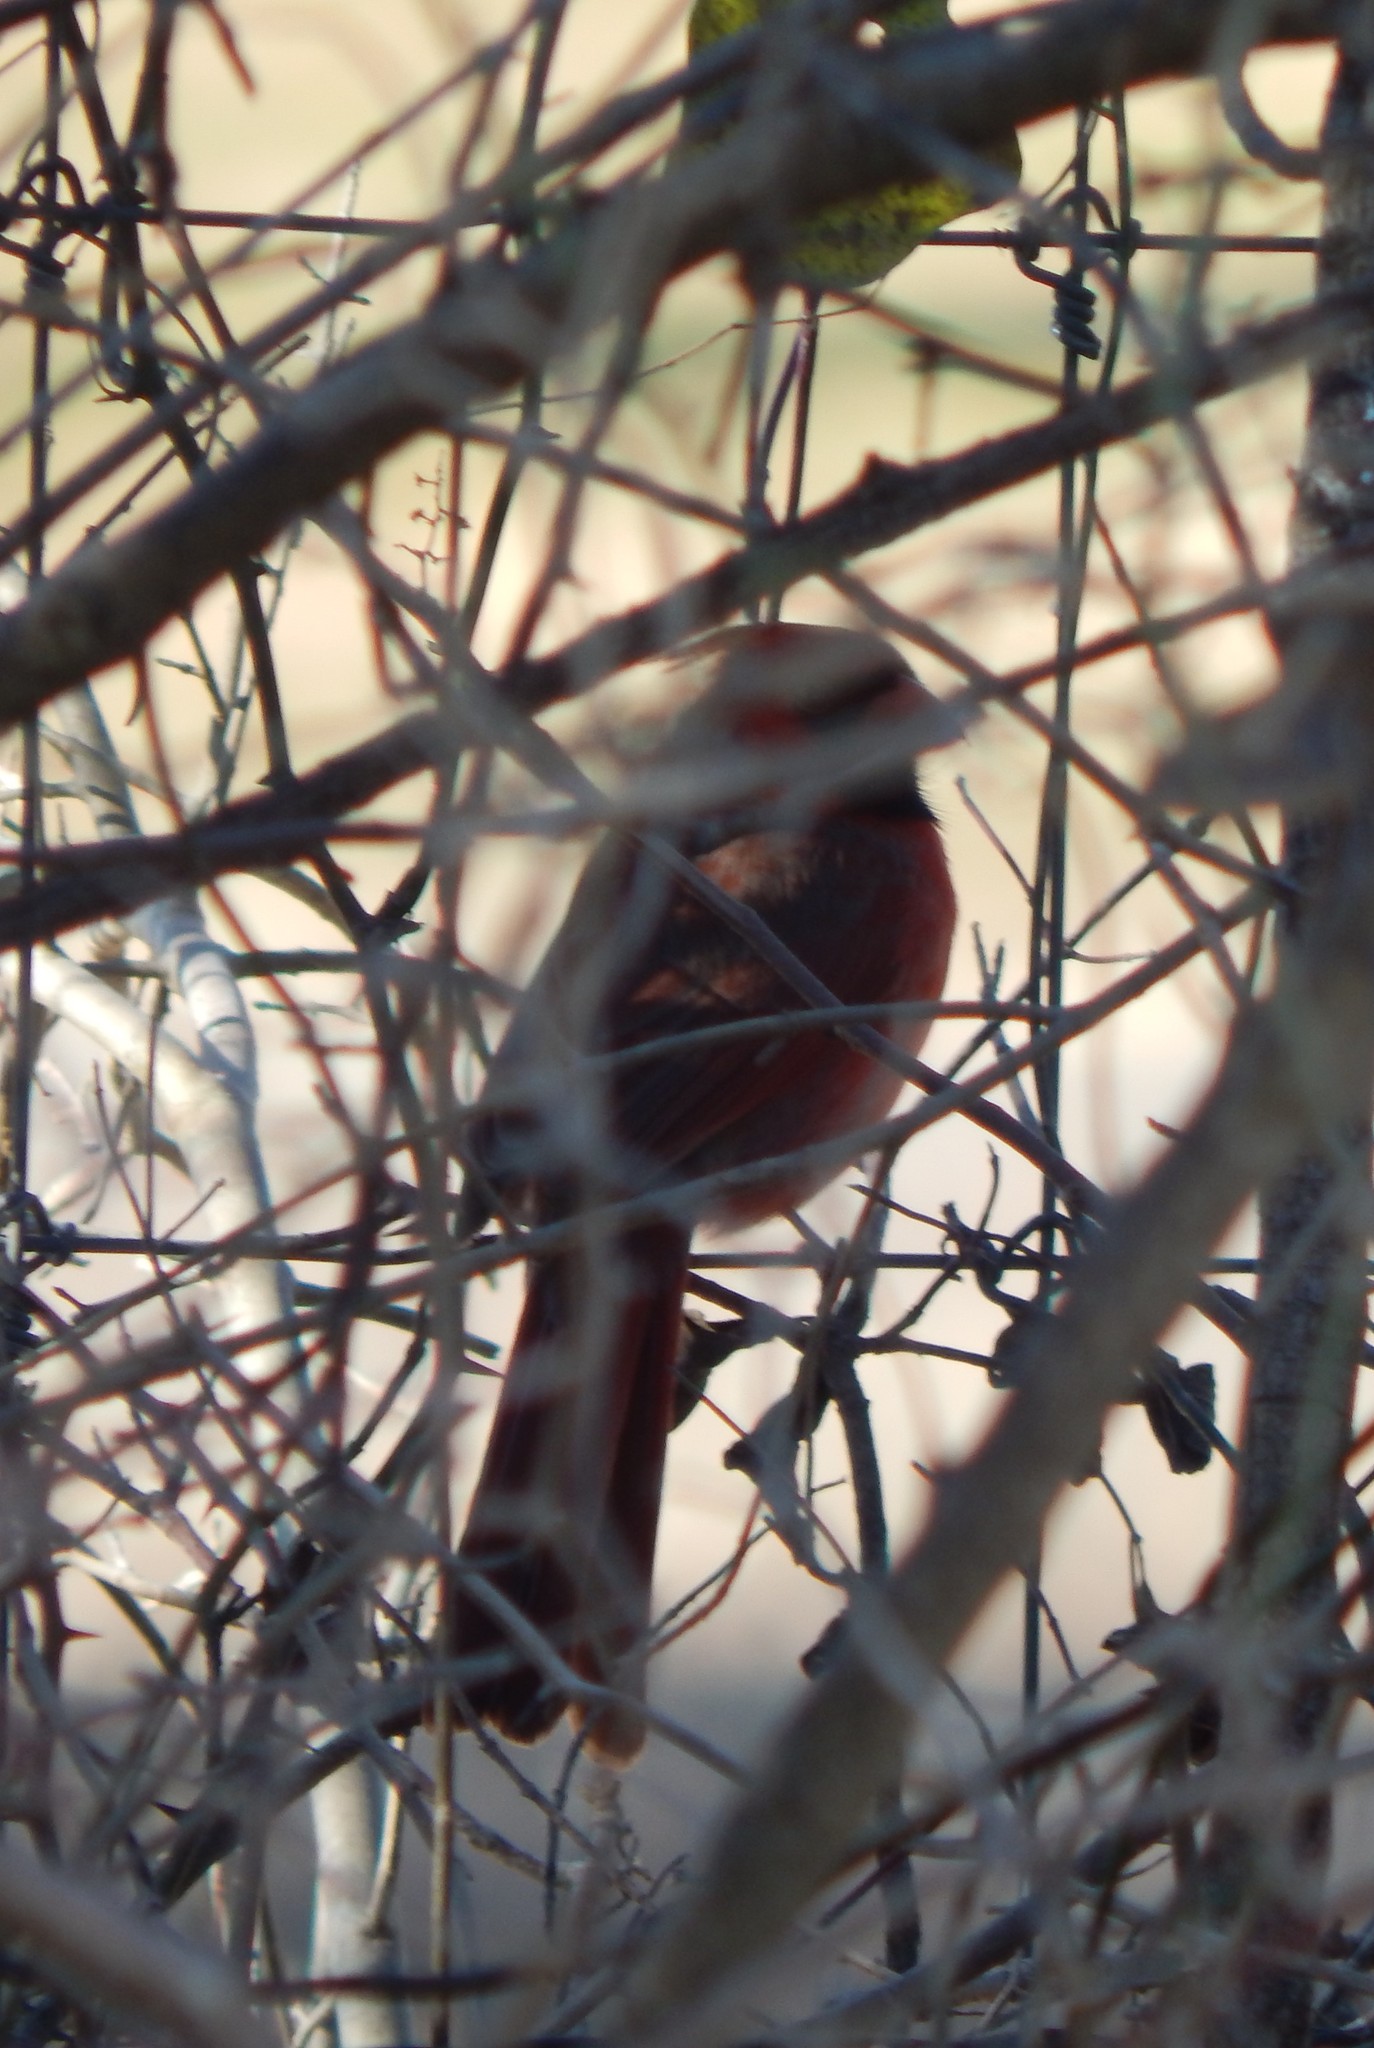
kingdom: Animalia
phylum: Chordata
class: Aves
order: Passeriformes
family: Cardinalidae
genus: Cardinalis
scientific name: Cardinalis cardinalis
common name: Northern cardinal
